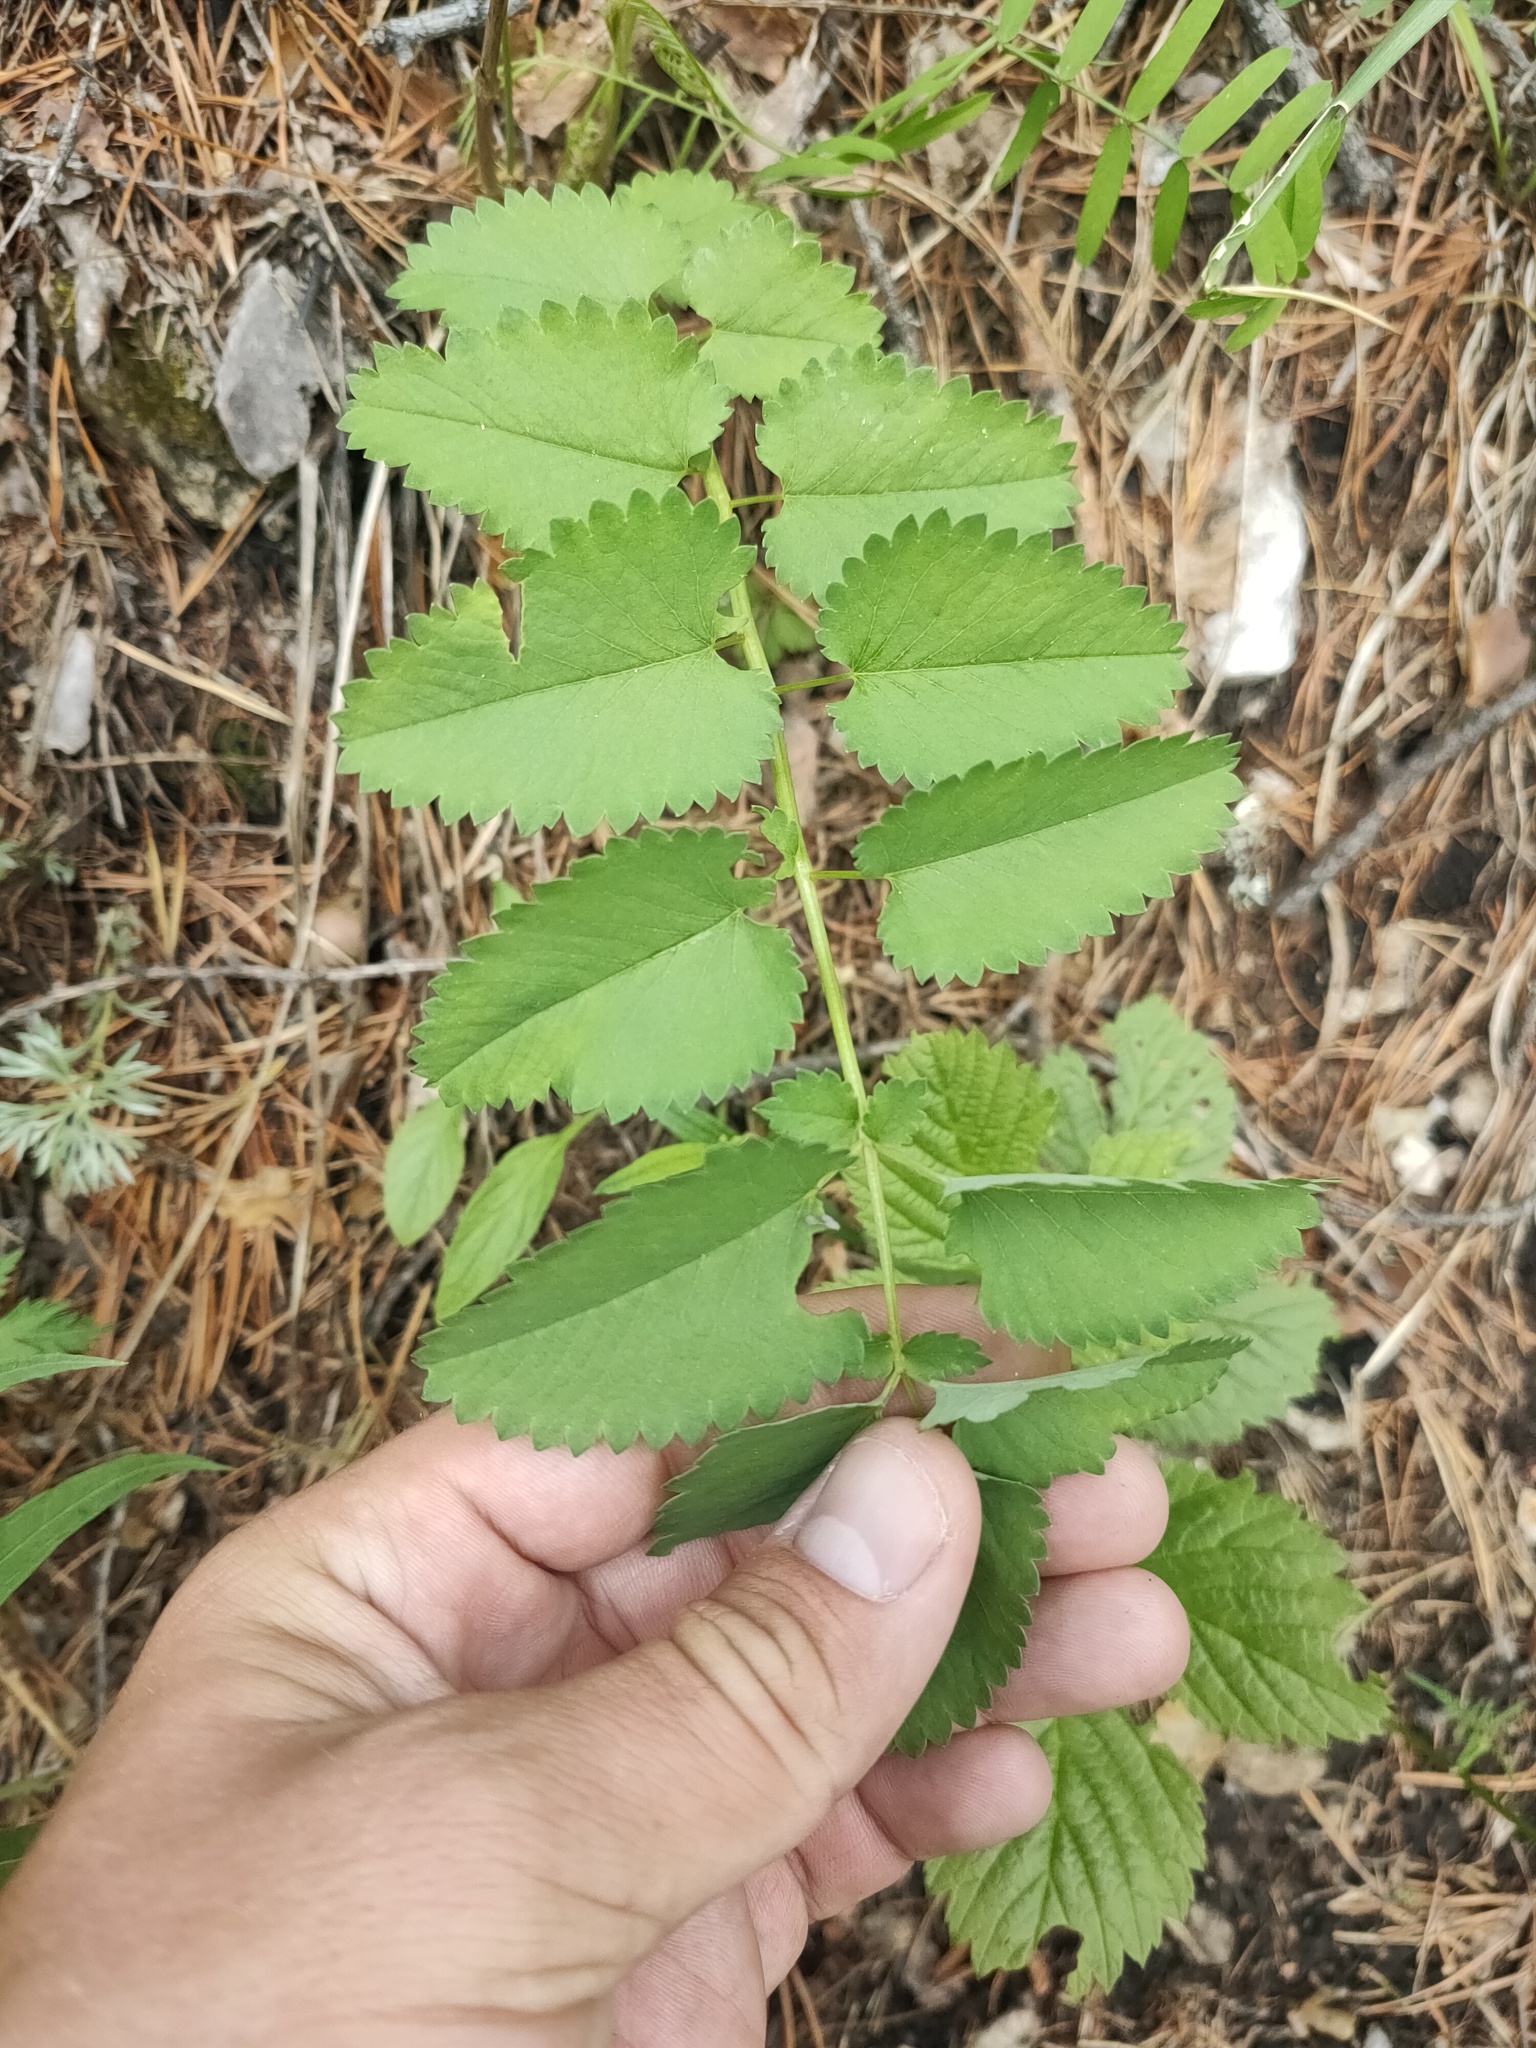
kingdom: Plantae
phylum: Tracheophyta
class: Magnoliopsida
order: Rosales
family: Rosaceae
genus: Sanguisorba
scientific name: Sanguisorba officinalis
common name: Great burnet
